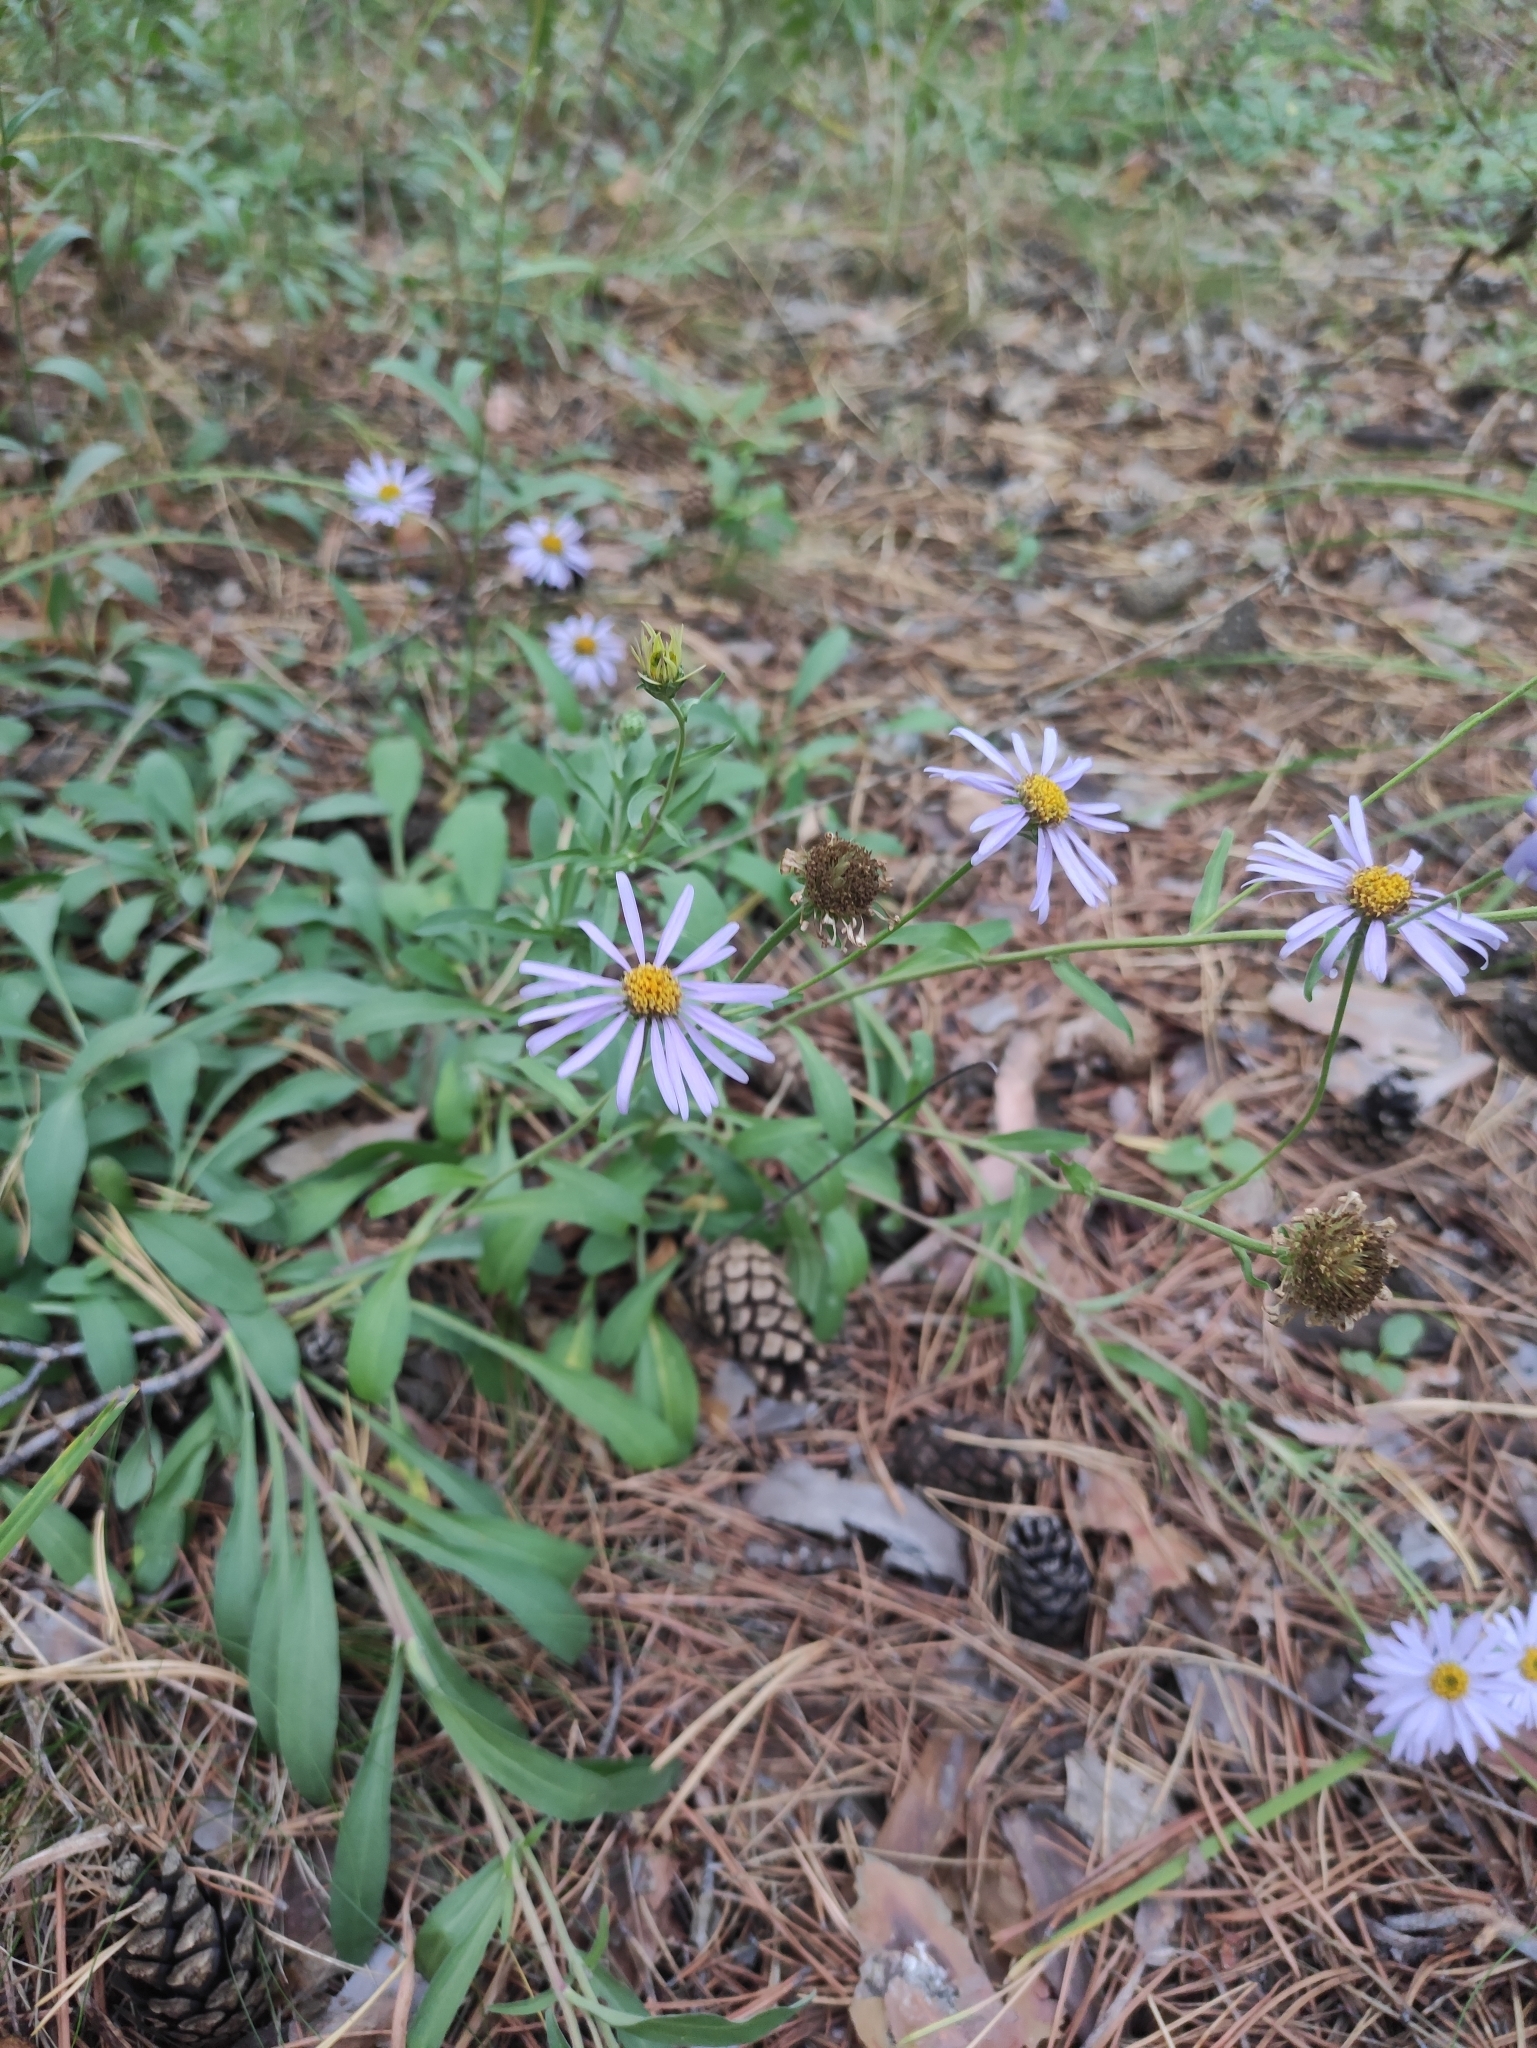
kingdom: Plantae
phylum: Tracheophyta
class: Magnoliopsida
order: Asterales
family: Asteraceae
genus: Aster
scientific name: Aster alpinus
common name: Alpine aster
